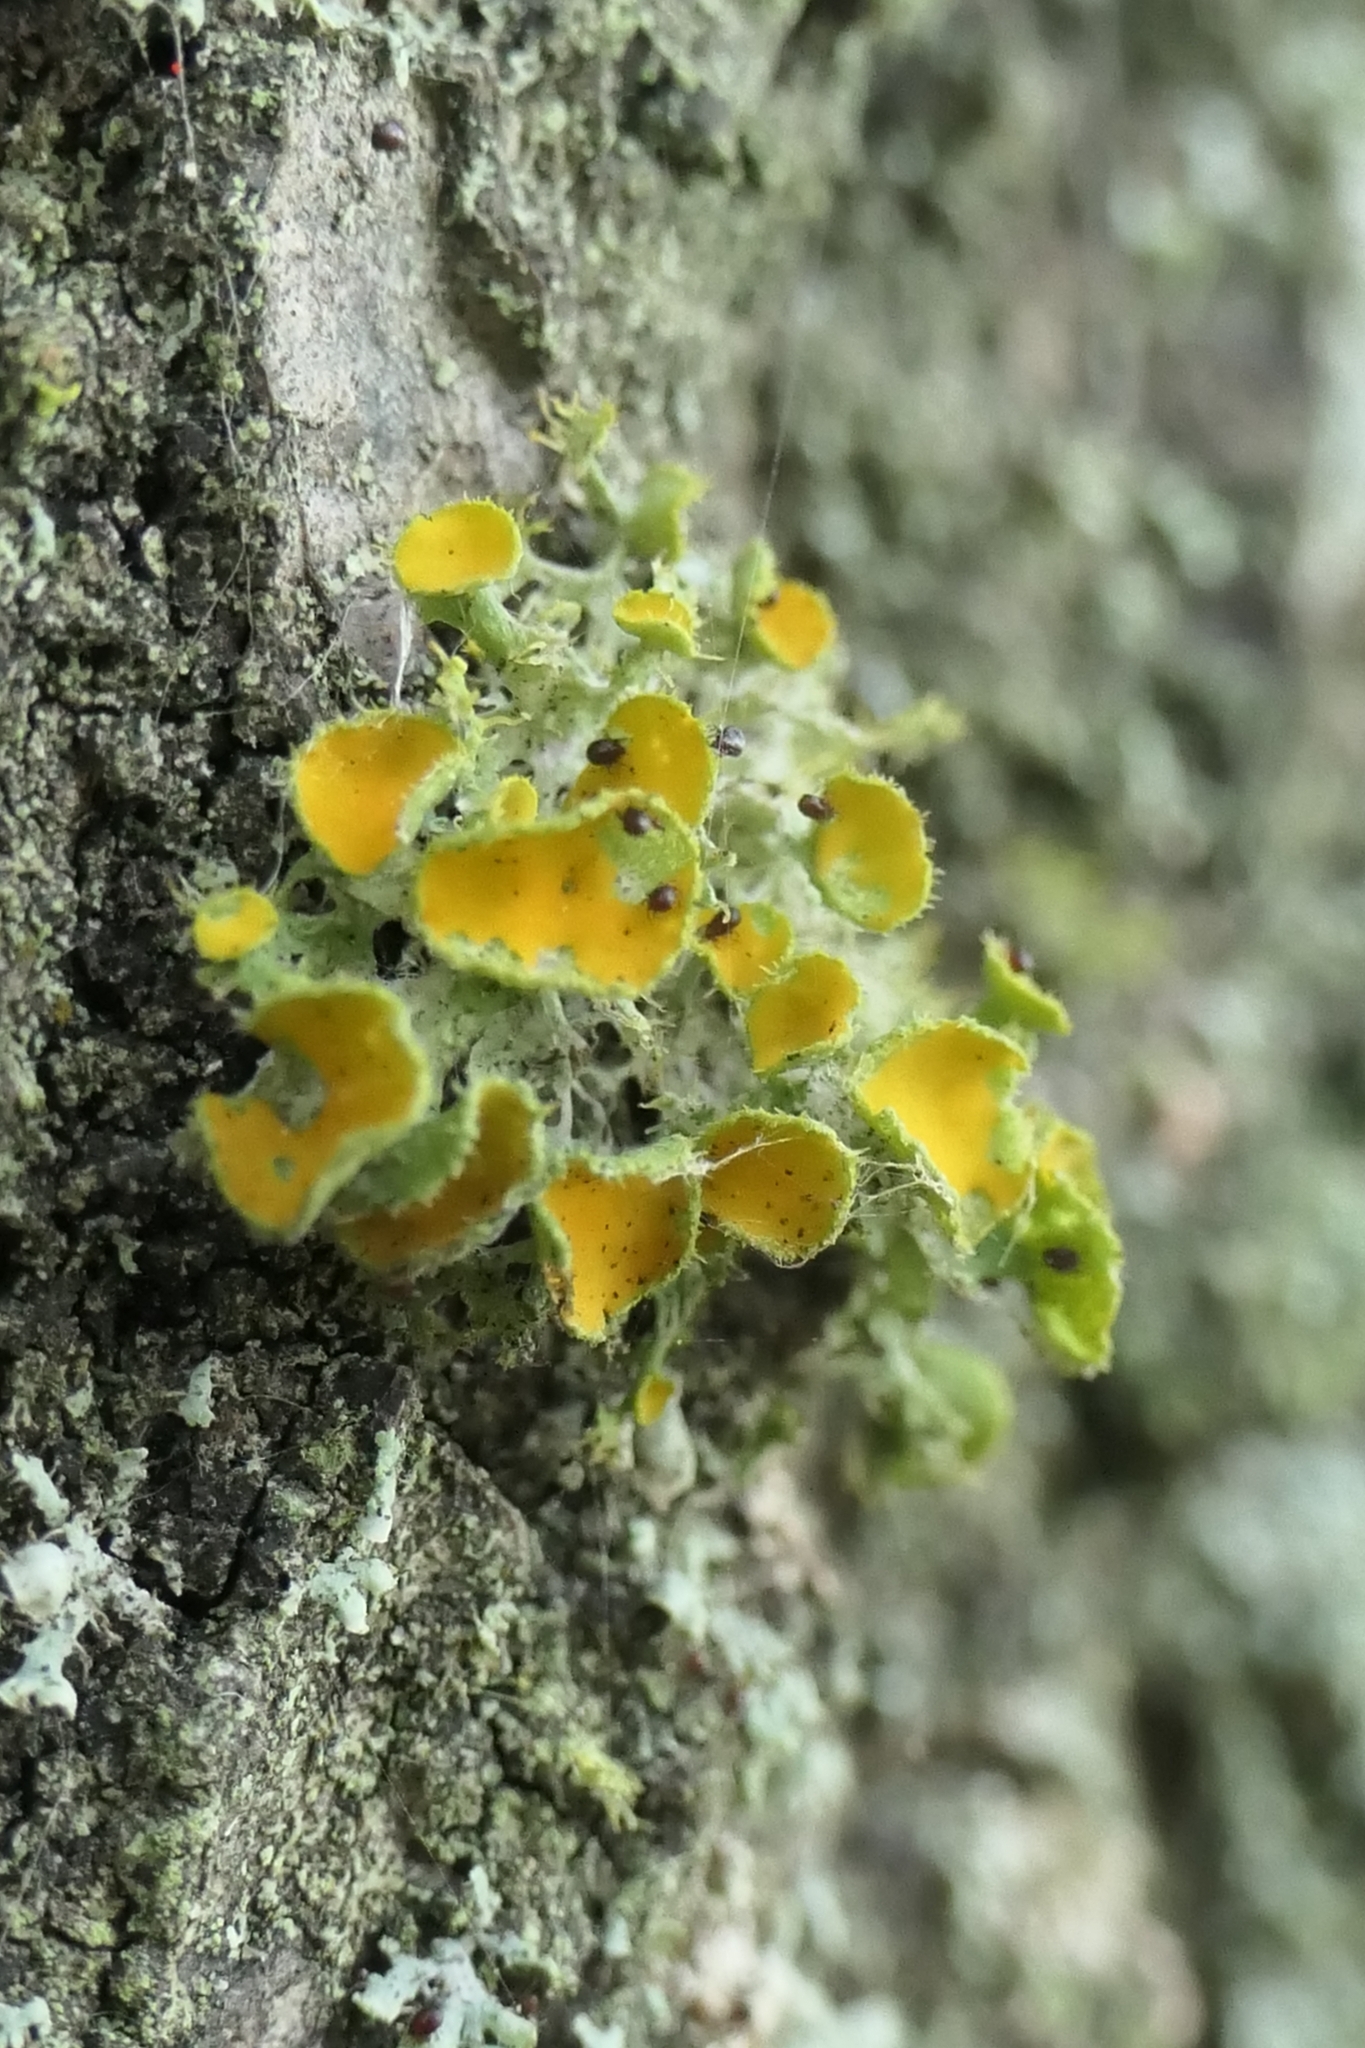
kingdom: Fungi
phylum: Ascomycota
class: Lecanoromycetes
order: Teloschistales
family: Teloschistaceae
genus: Niorma
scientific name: Niorma chrysophthalma
